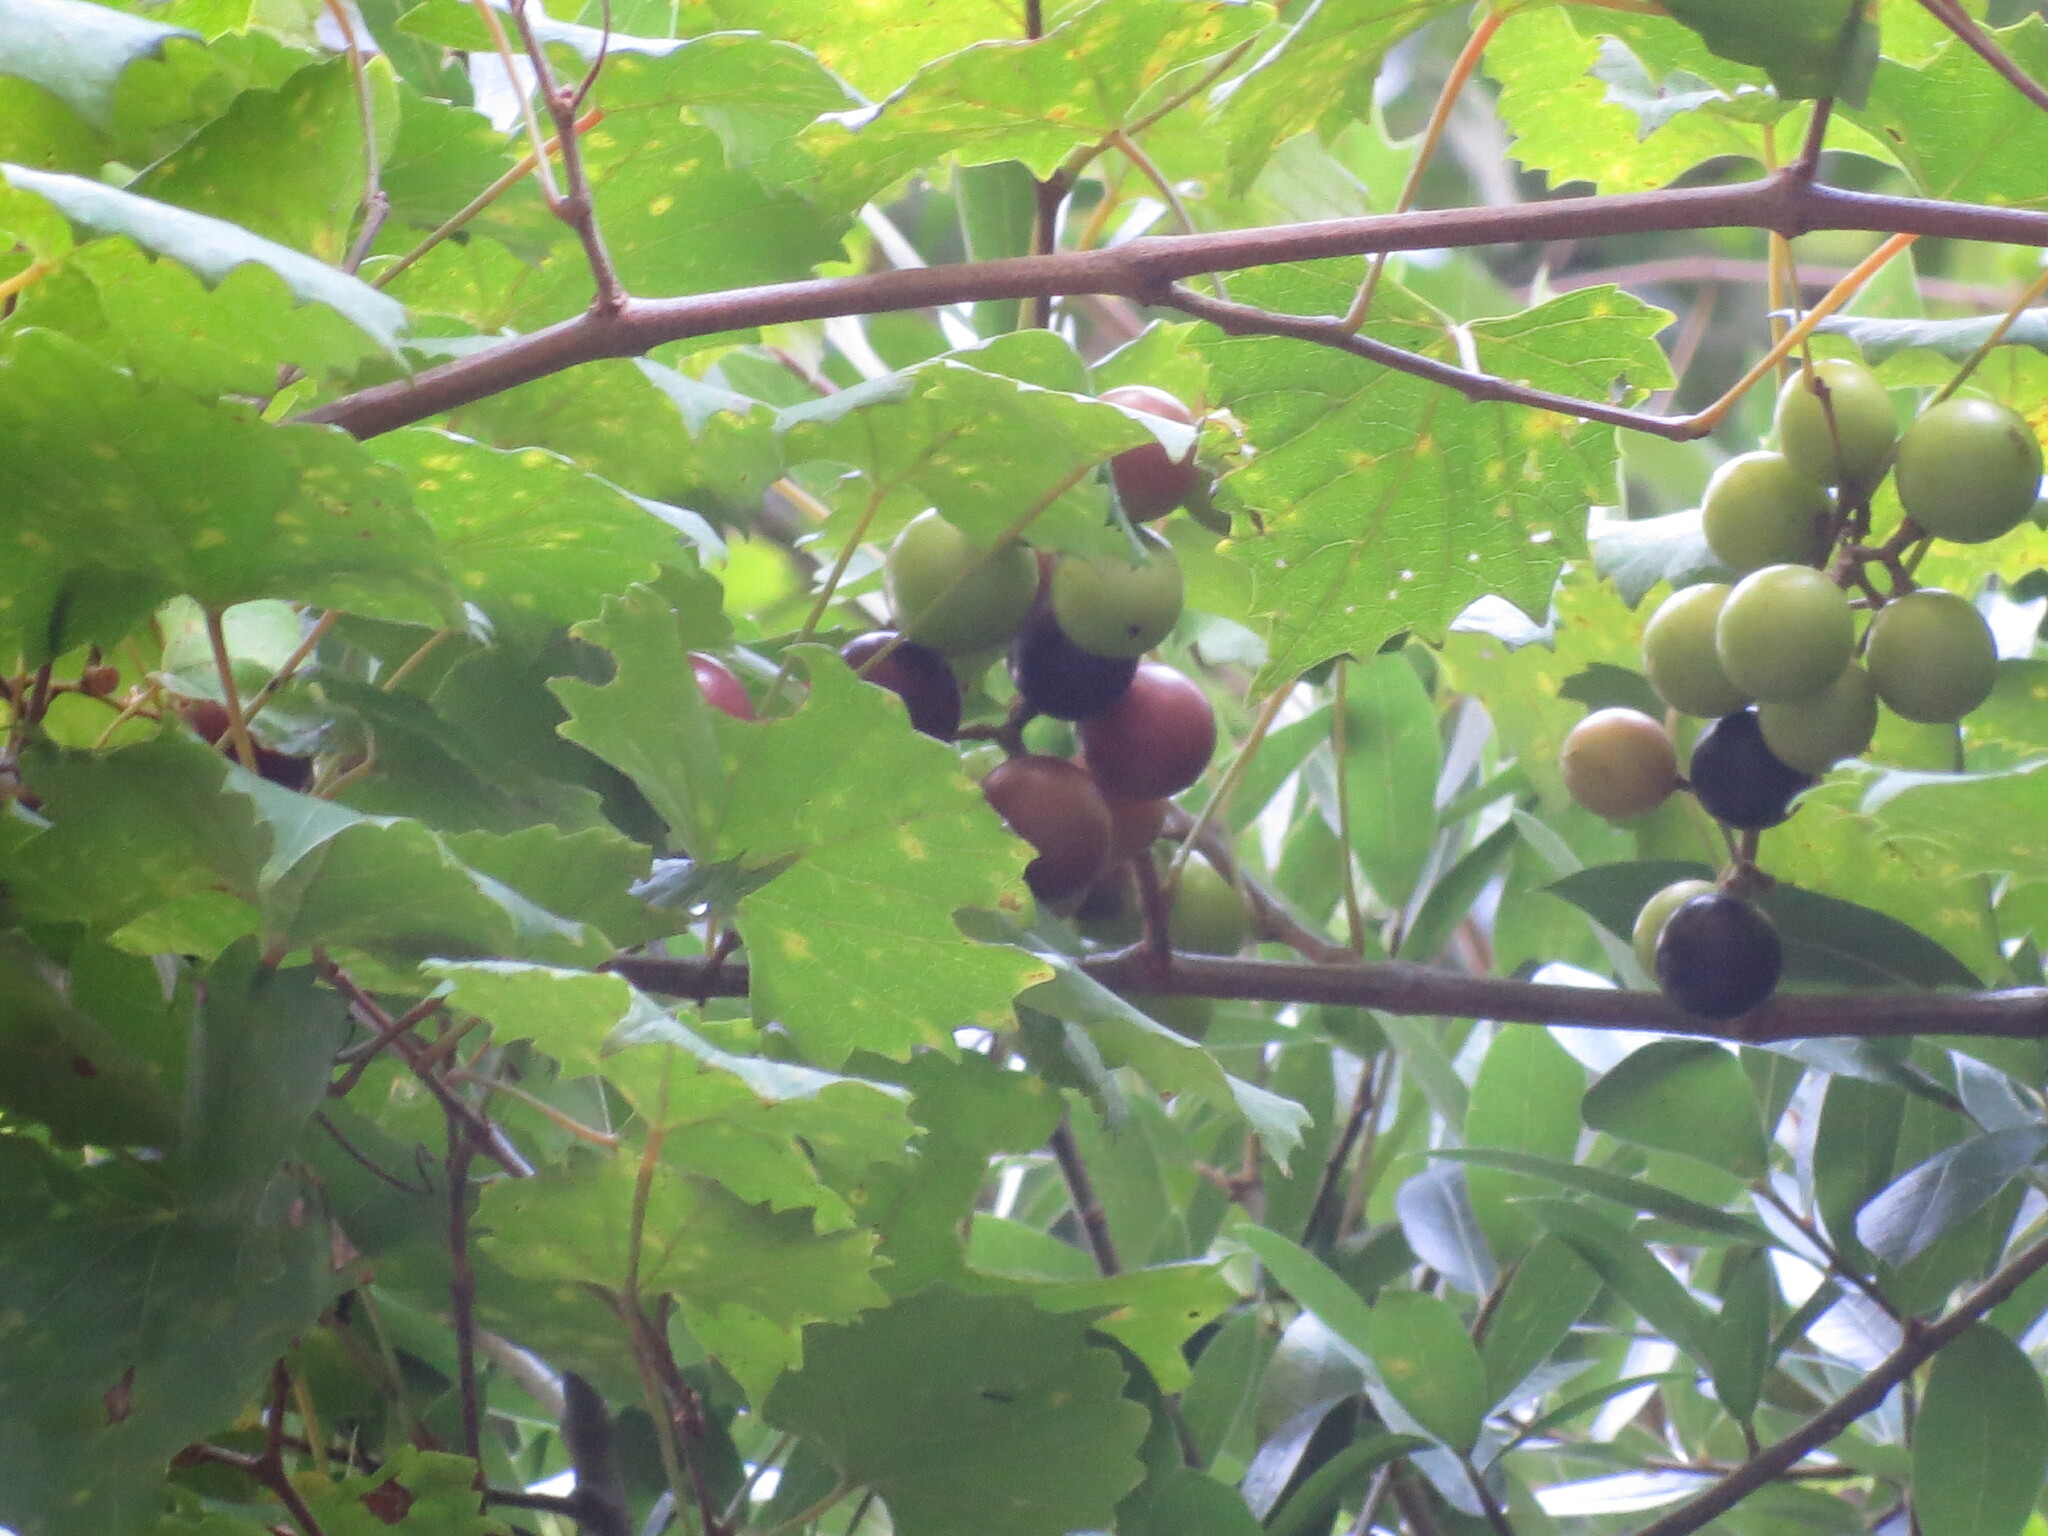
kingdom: Plantae
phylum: Tracheophyta
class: Magnoliopsida
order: Vitales
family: Vitaceae
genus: Vitis
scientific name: Vitis rotundifolia
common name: Muscadine grape
